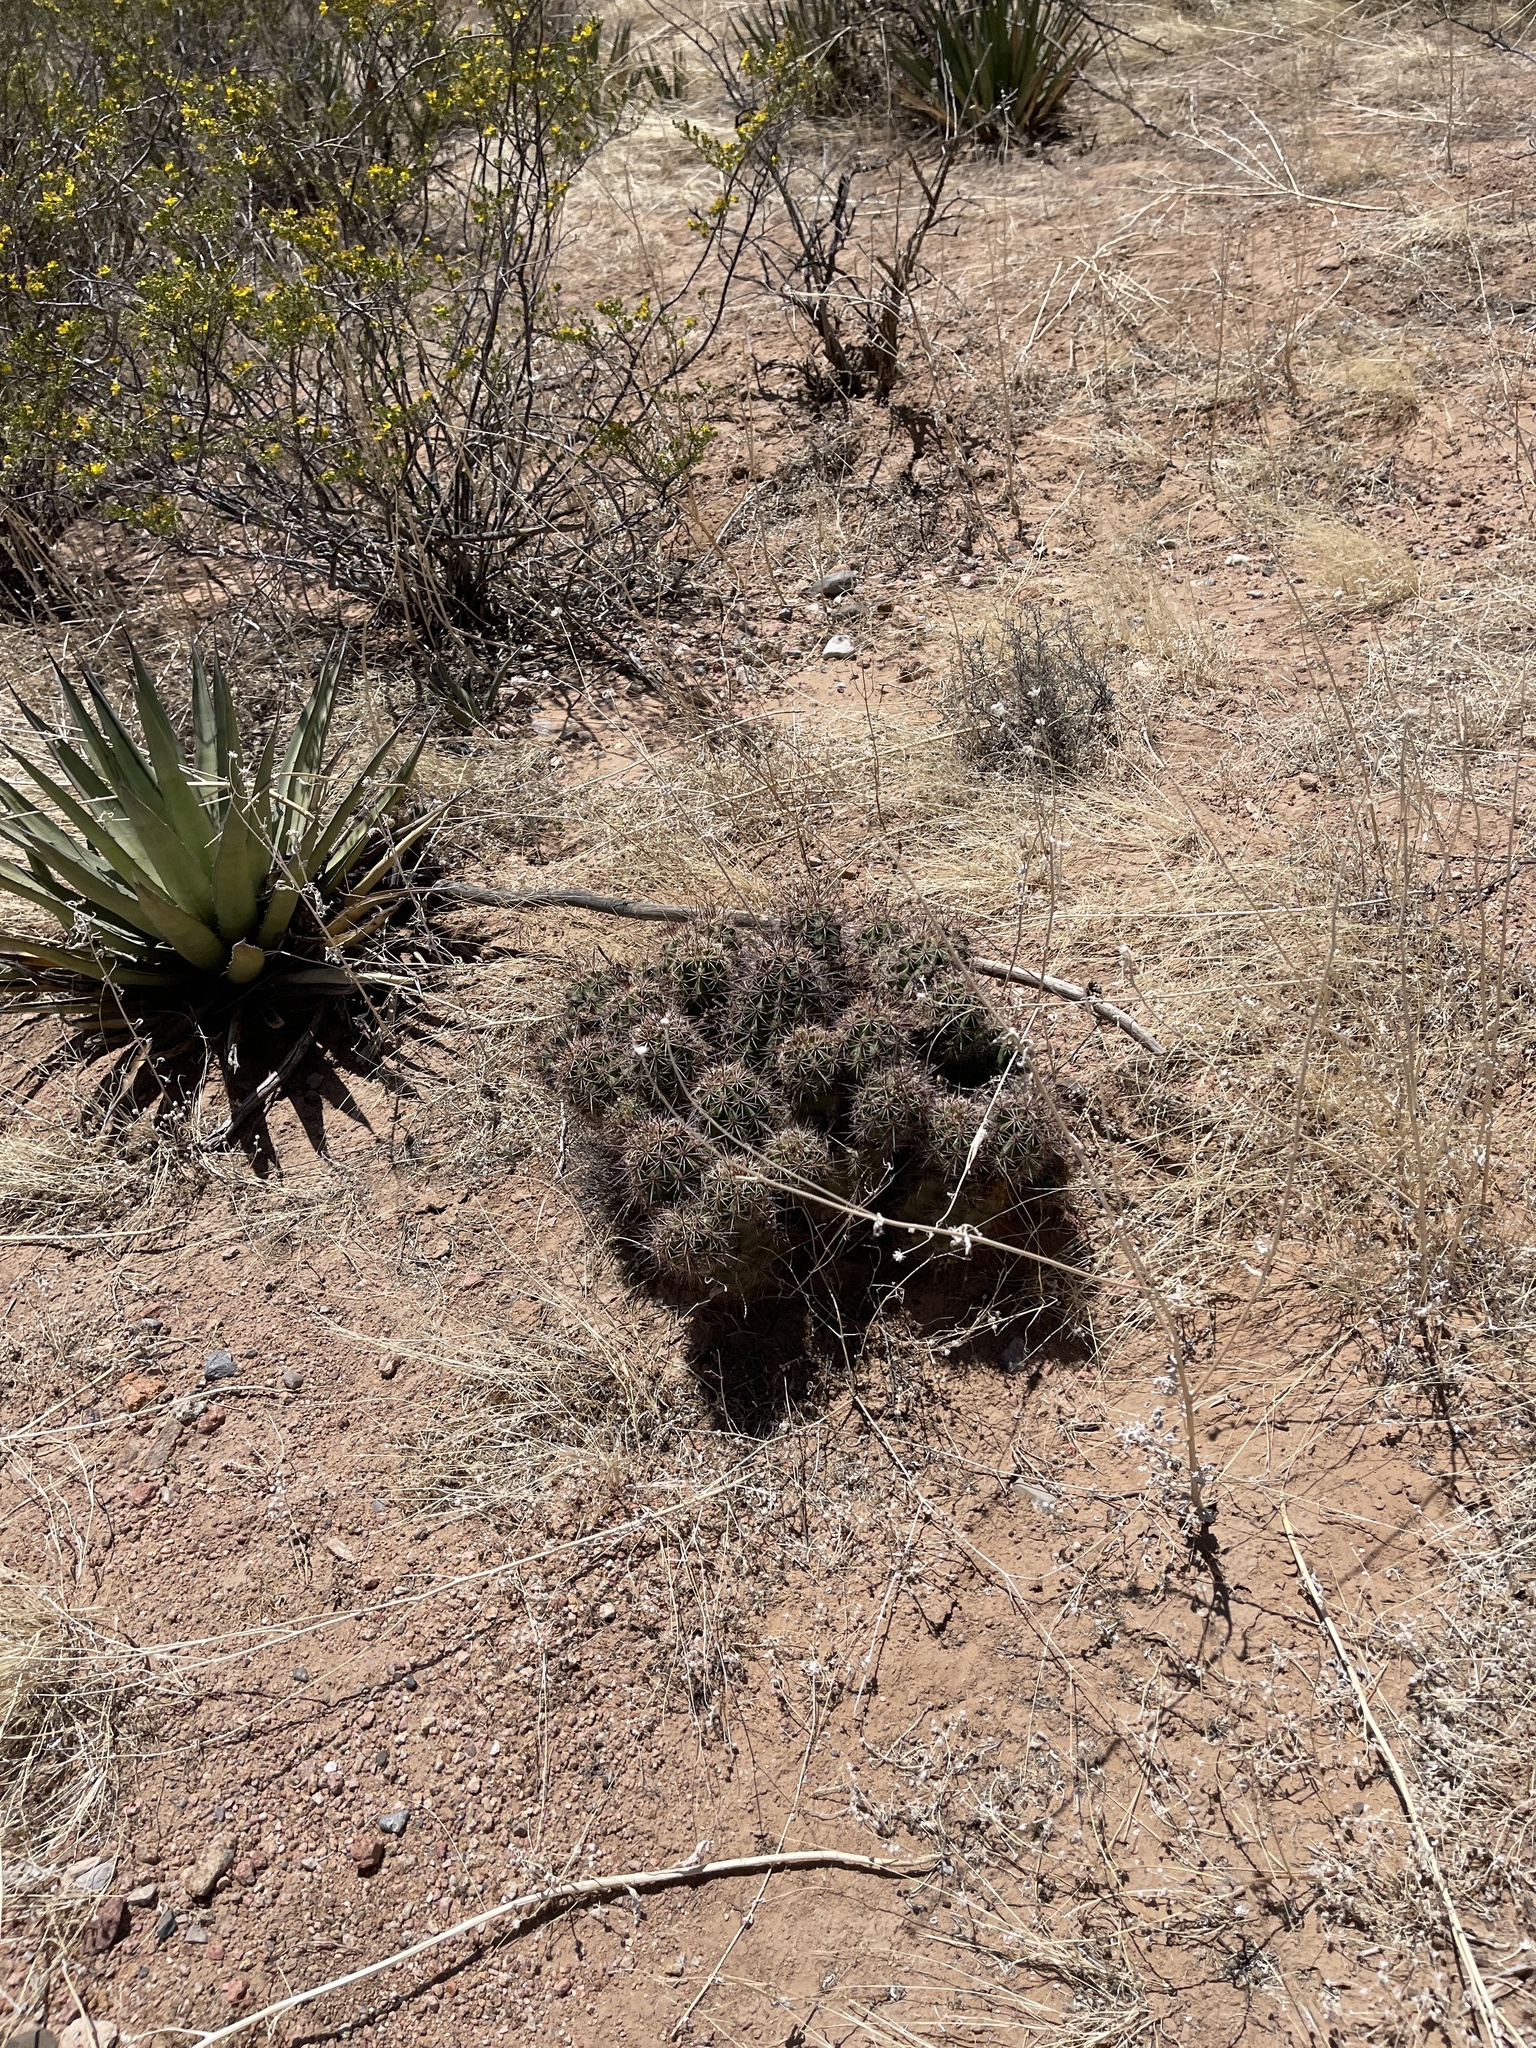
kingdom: Plantae
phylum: Tracheophyta
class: Magnoliopsida
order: Caryophyllales
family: Cactaceae
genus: Echinocereus
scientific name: Echinocereus coccineus
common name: Scarlet hedgehog cactus
